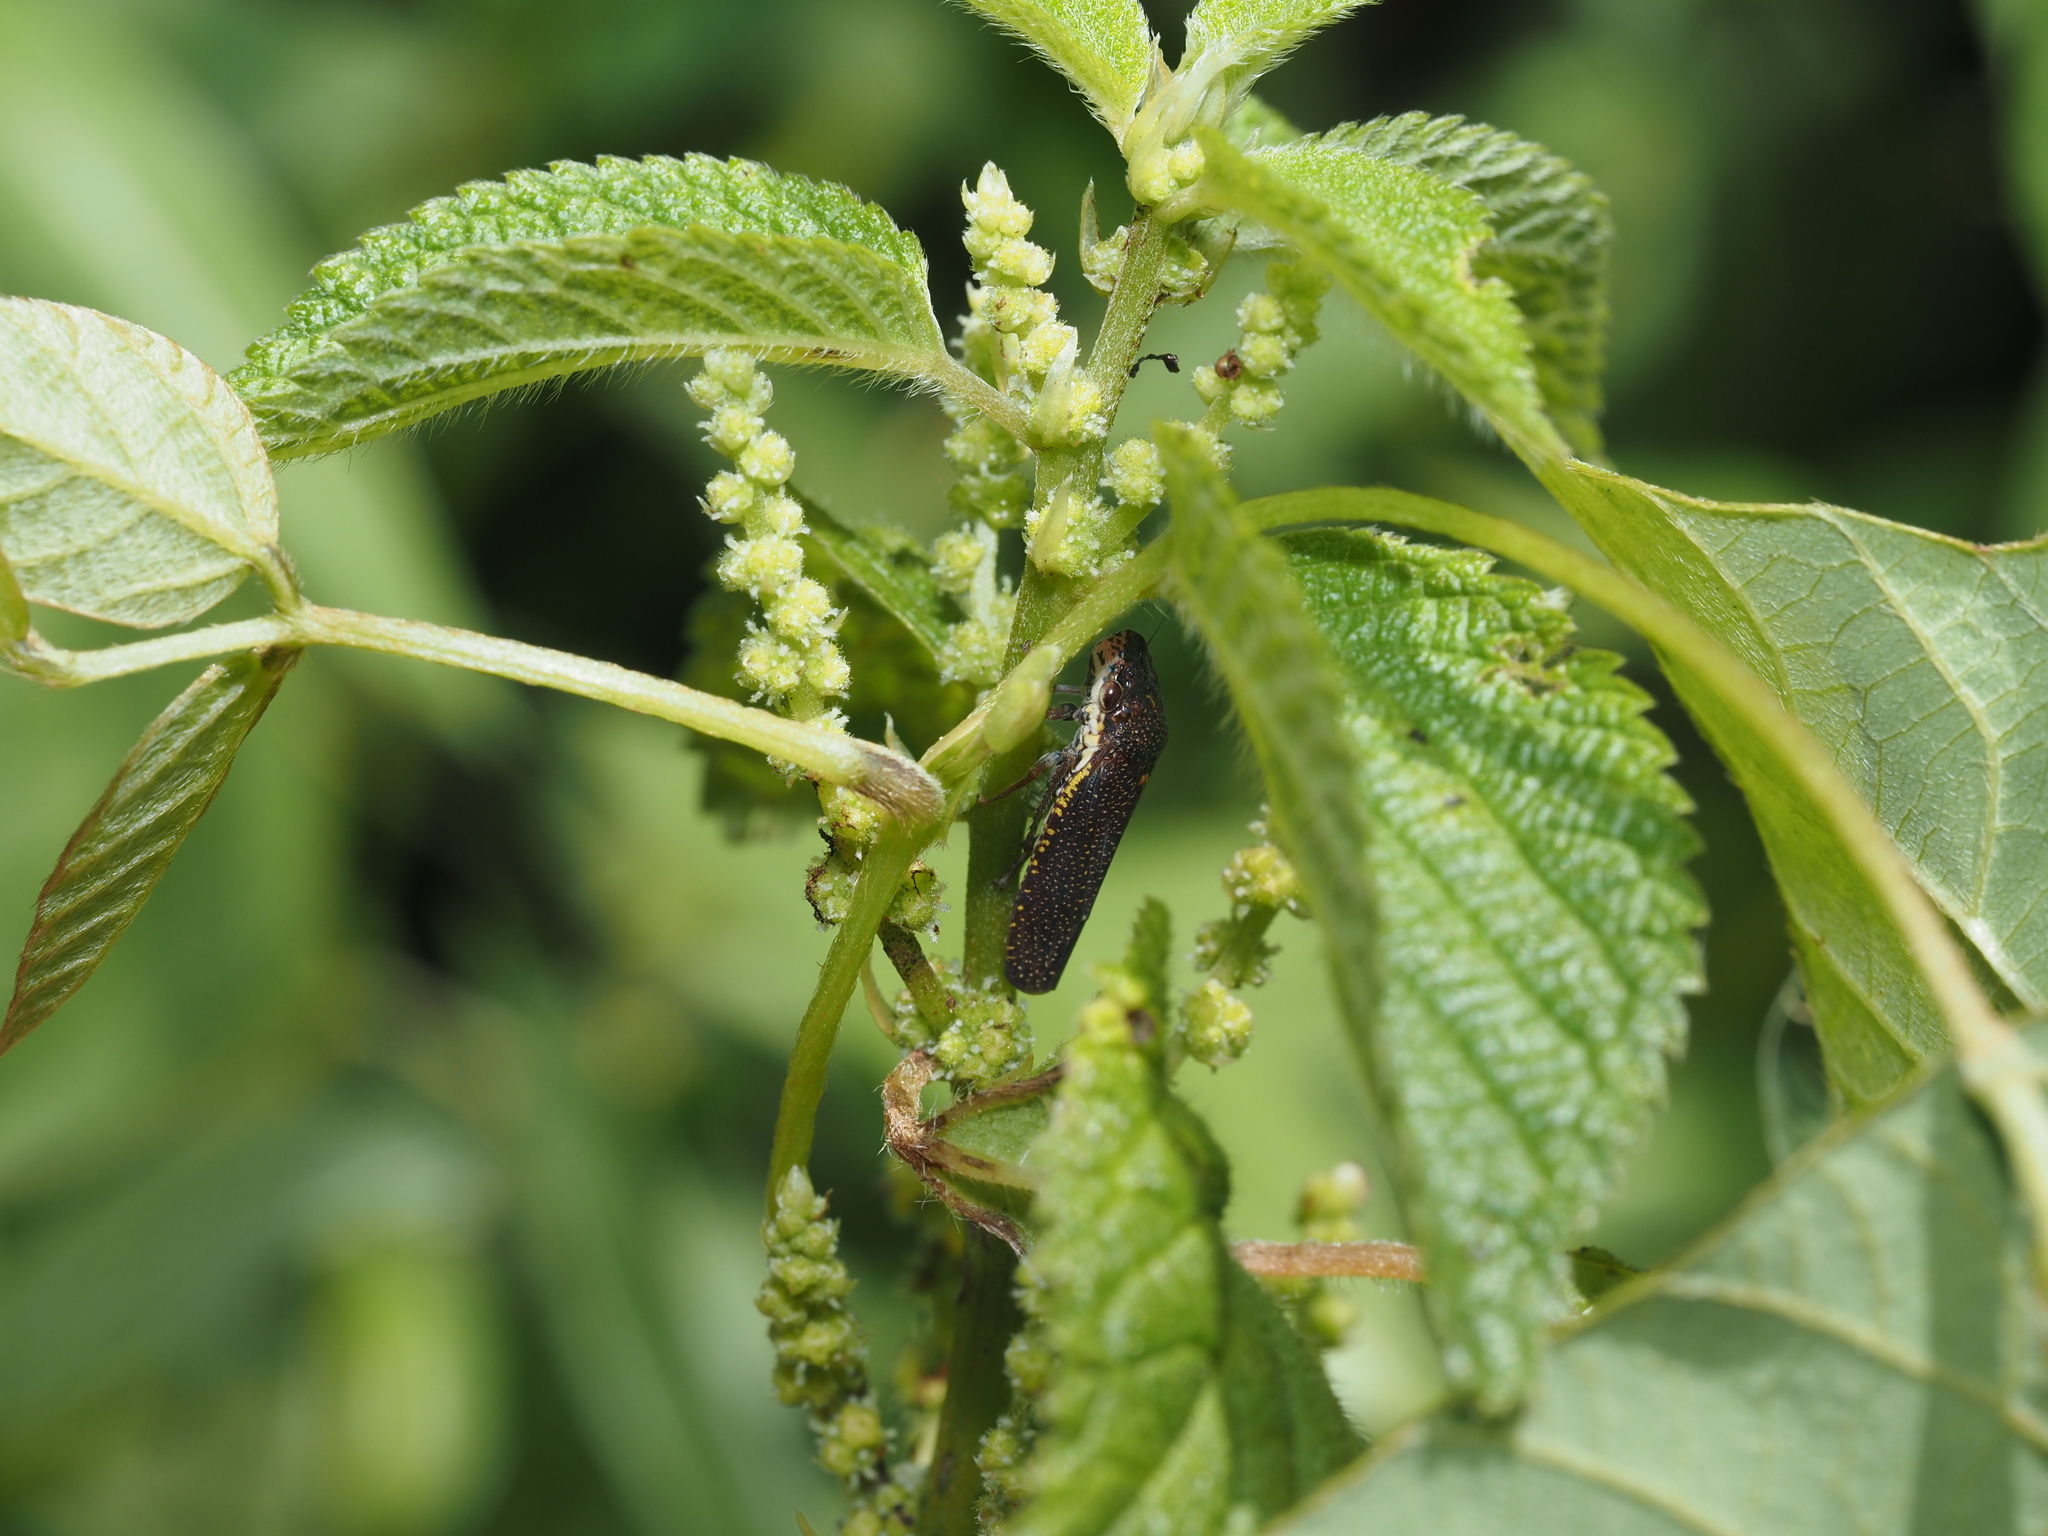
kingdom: Plantae
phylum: Tracheophyta
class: Magnoliopsida
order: Rosales
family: Urticaceae
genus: Boehmeria
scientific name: Boehmeria cylindrica
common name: Bog-hemp
